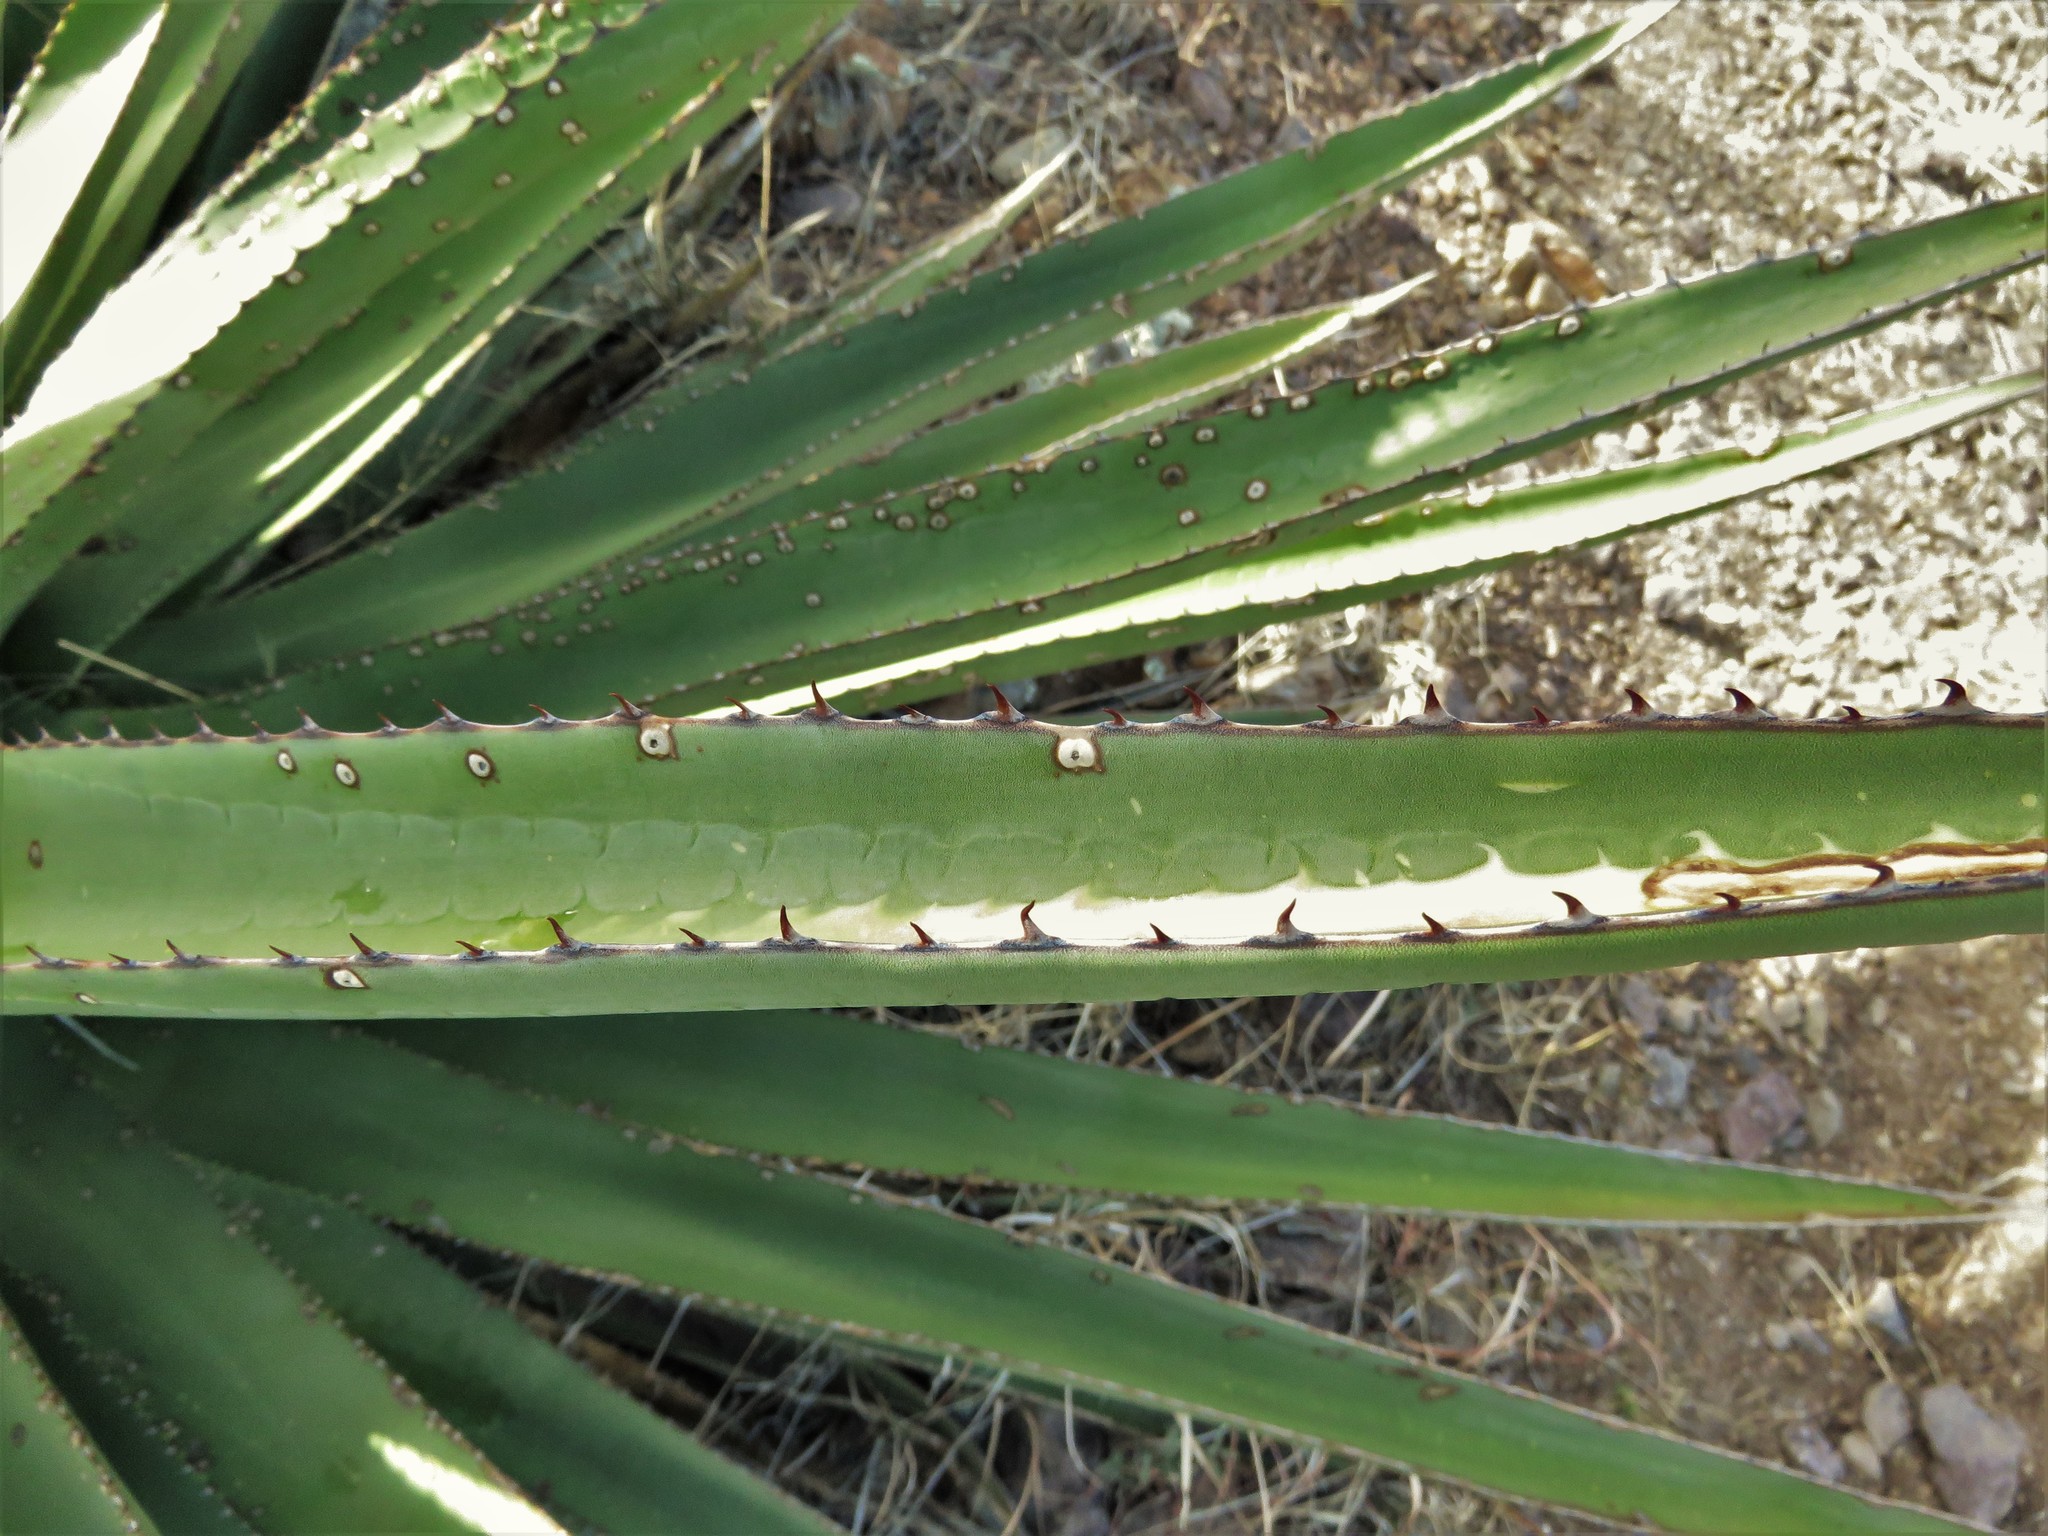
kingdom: Plantae
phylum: Tracheophyta
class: Liliopsida
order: Asparagales
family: Asparagaceae
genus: Agave
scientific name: Agave palmeri
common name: Palmer agave
